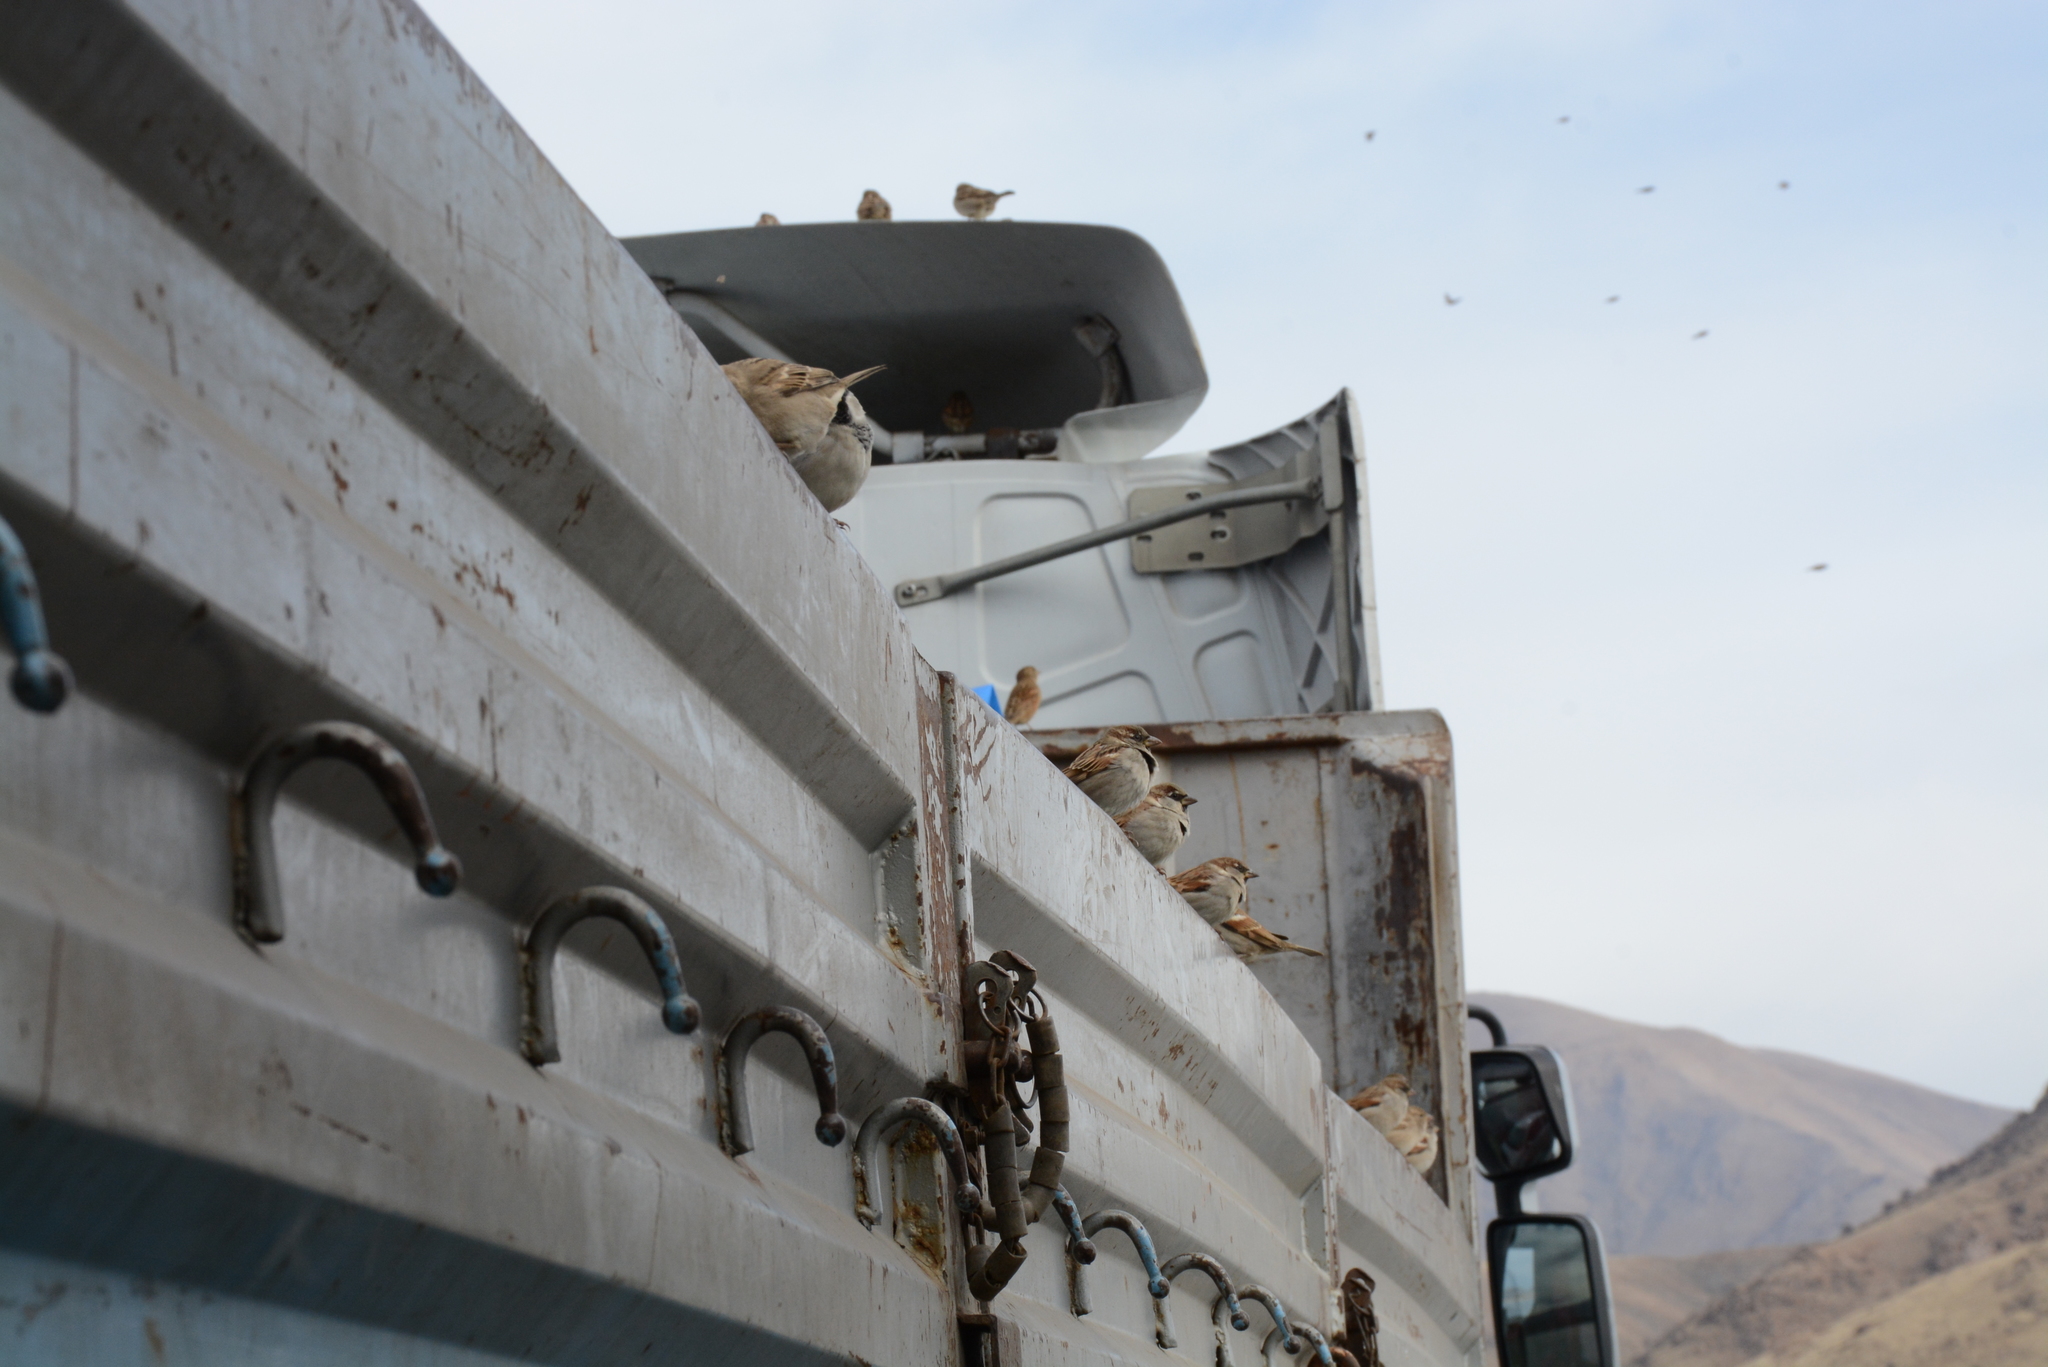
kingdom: Animalia
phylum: Chordata
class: Aves
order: Passeriformes
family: Passeridae
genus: Passer
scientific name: Passer domesticus
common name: House sparrow
